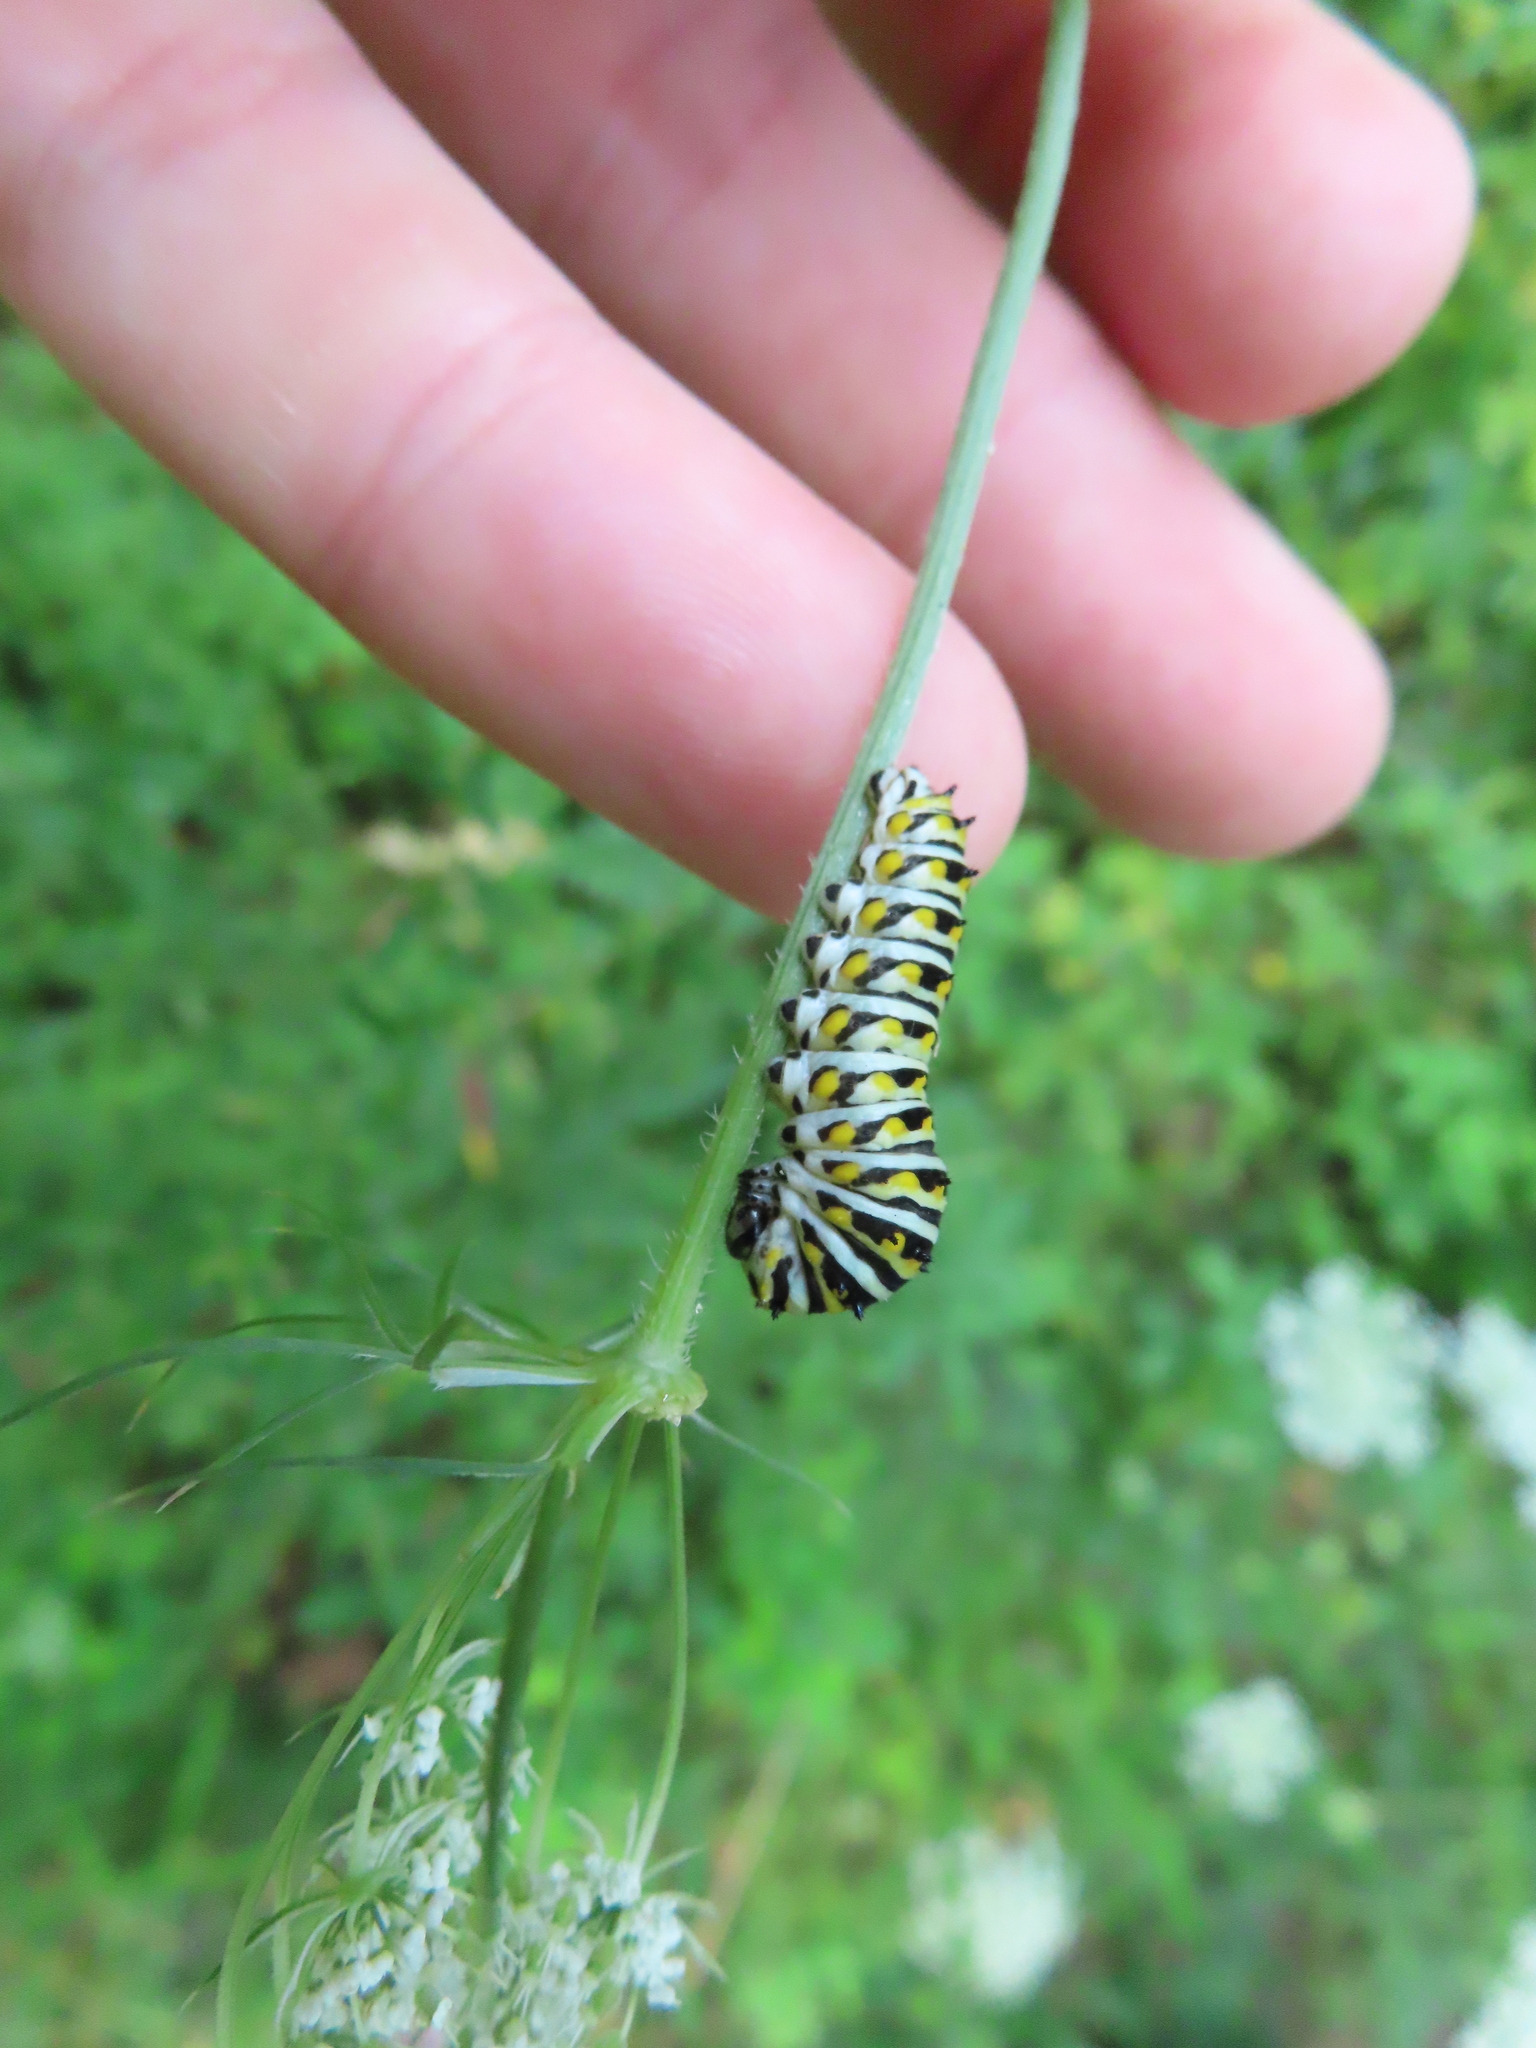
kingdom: Animalia
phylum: Arthropoda
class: Insecta
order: Lepidoptera
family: Papilionidae
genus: Papilio
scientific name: Papilio polyxenes
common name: Black swallowtail
